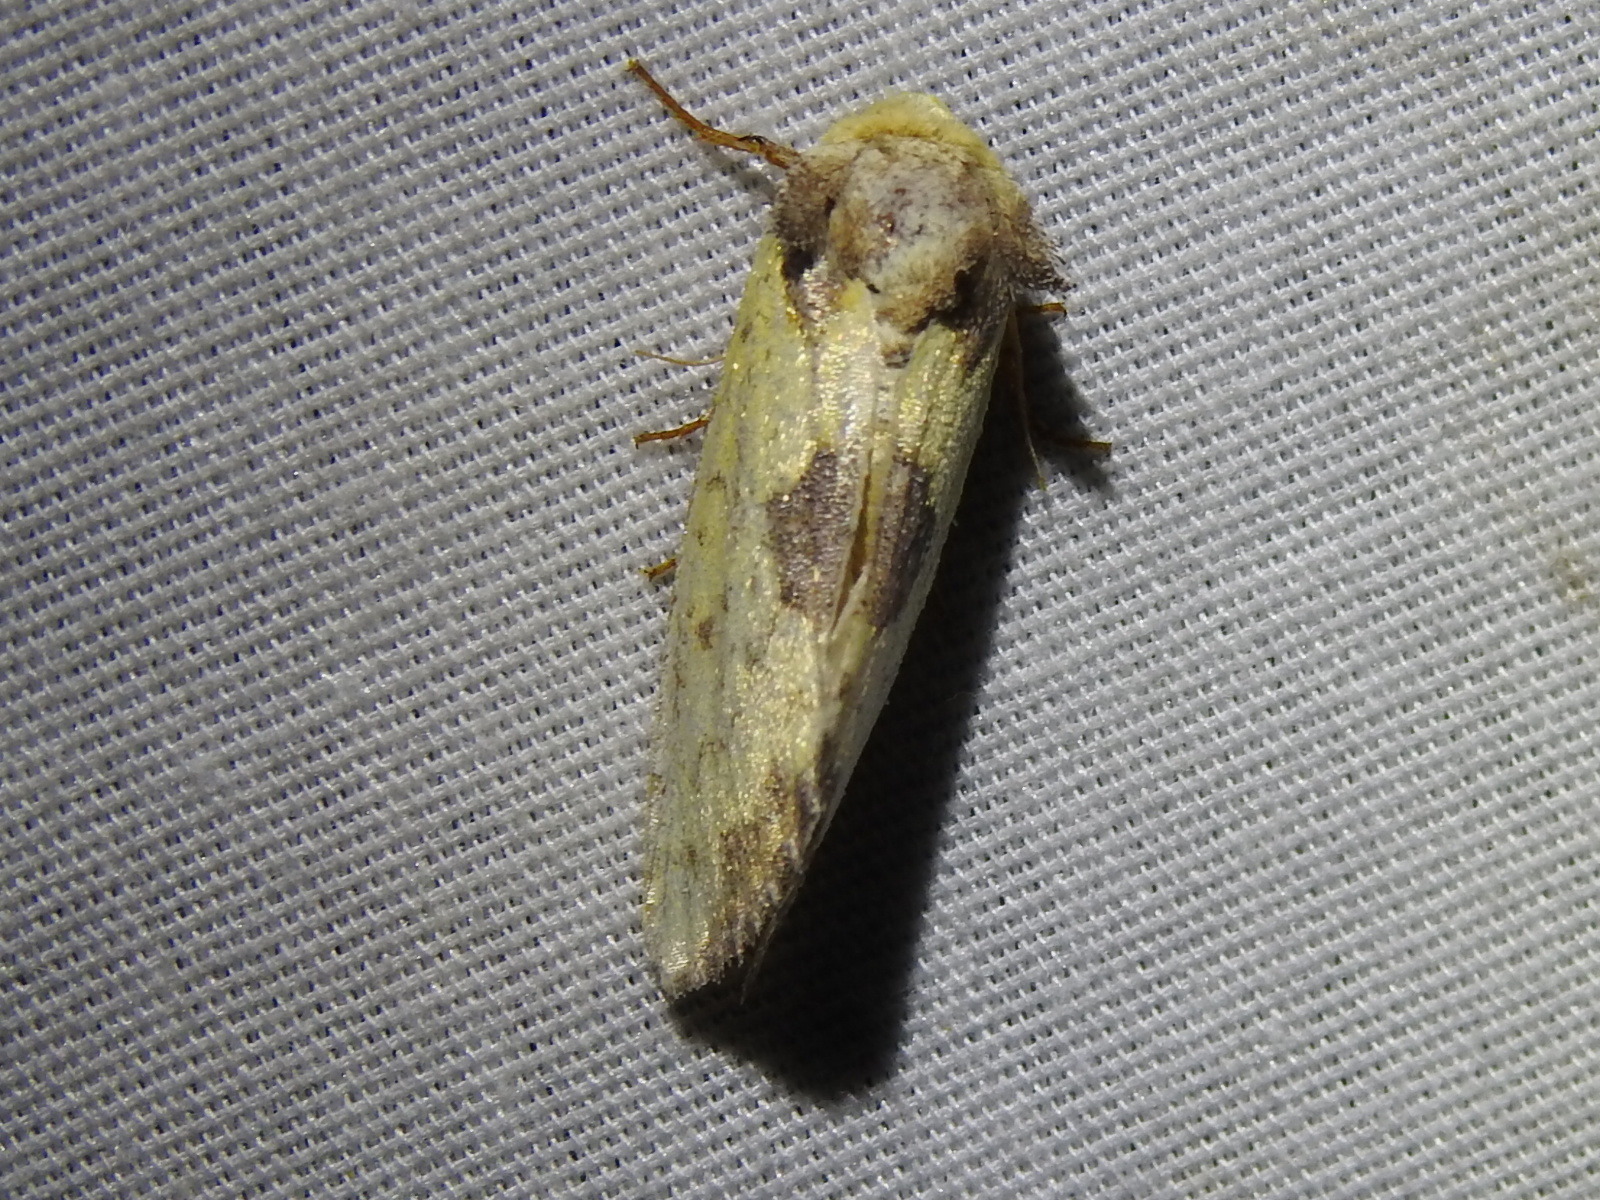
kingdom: Animalia
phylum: Arthropoda
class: Insecta
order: Lepidoptera
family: Noctuidae
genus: Stiria
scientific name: Stiria rugifrons
